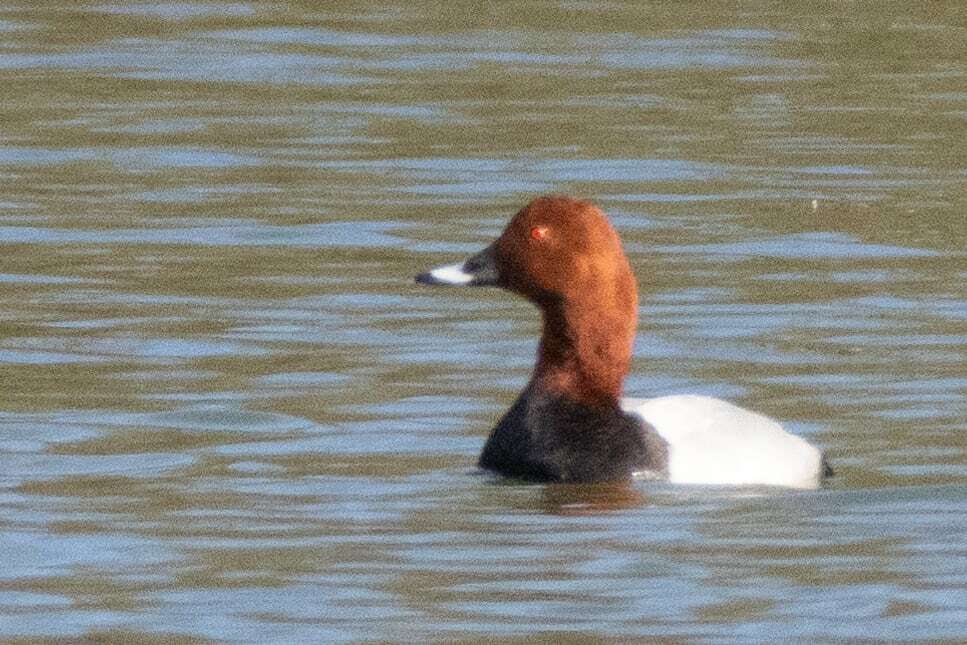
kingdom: Animalia
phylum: Chordata
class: Aves
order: Anseriformes
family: Anatidae
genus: Aythya
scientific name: Aythya ferina
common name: Common pochard
